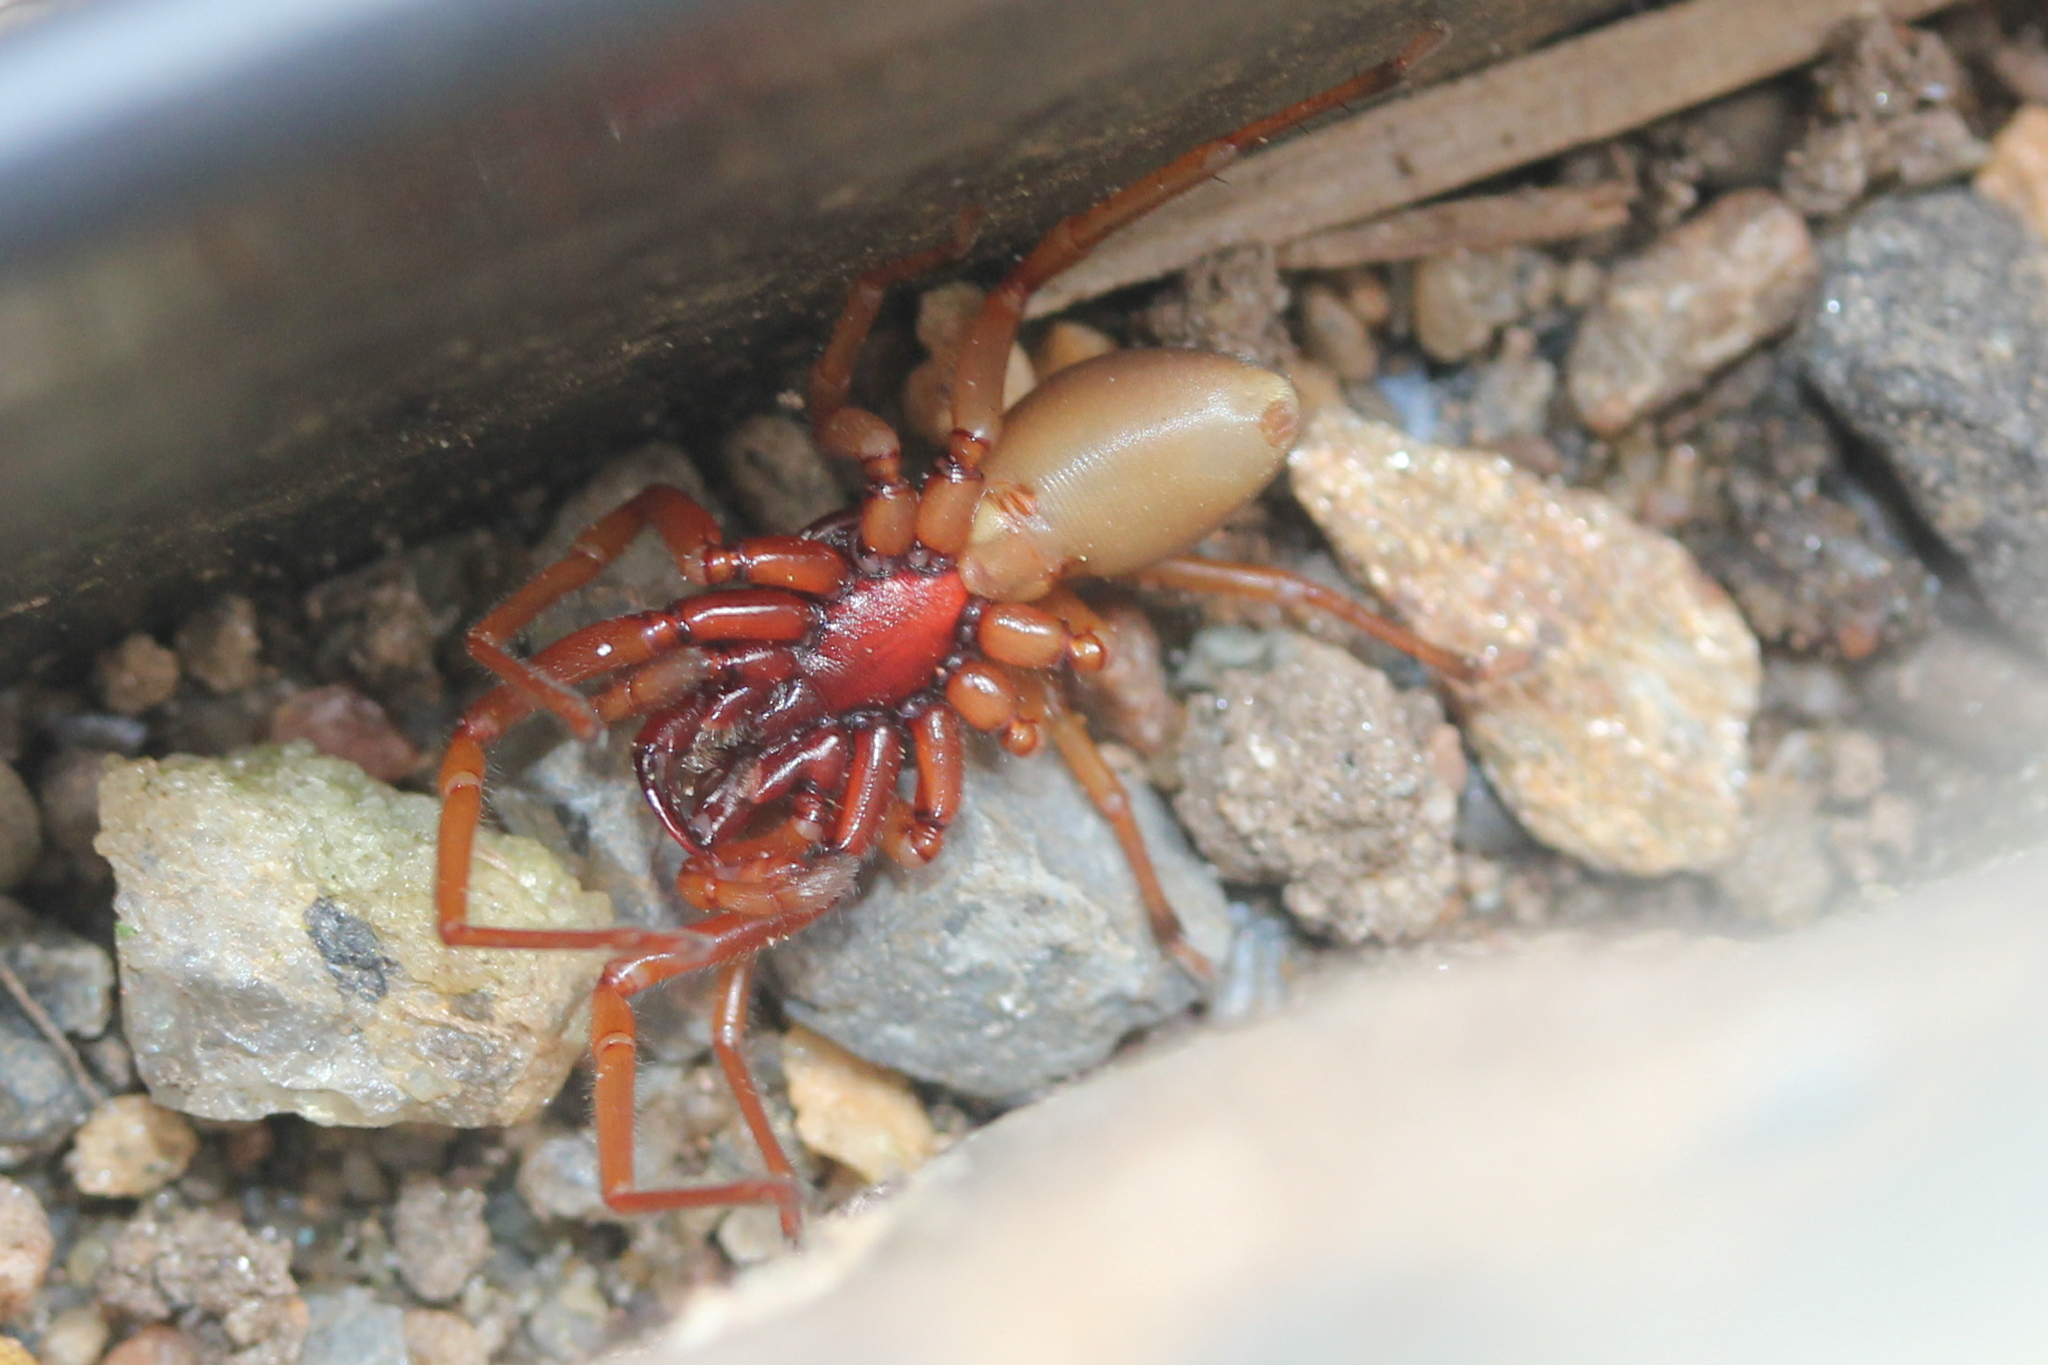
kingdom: Animalia
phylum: Arthropoda
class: Arachnida
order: Araneae
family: Dysderidae
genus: Dysdera
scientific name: Dysdera crocata
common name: Woodlouse spider
